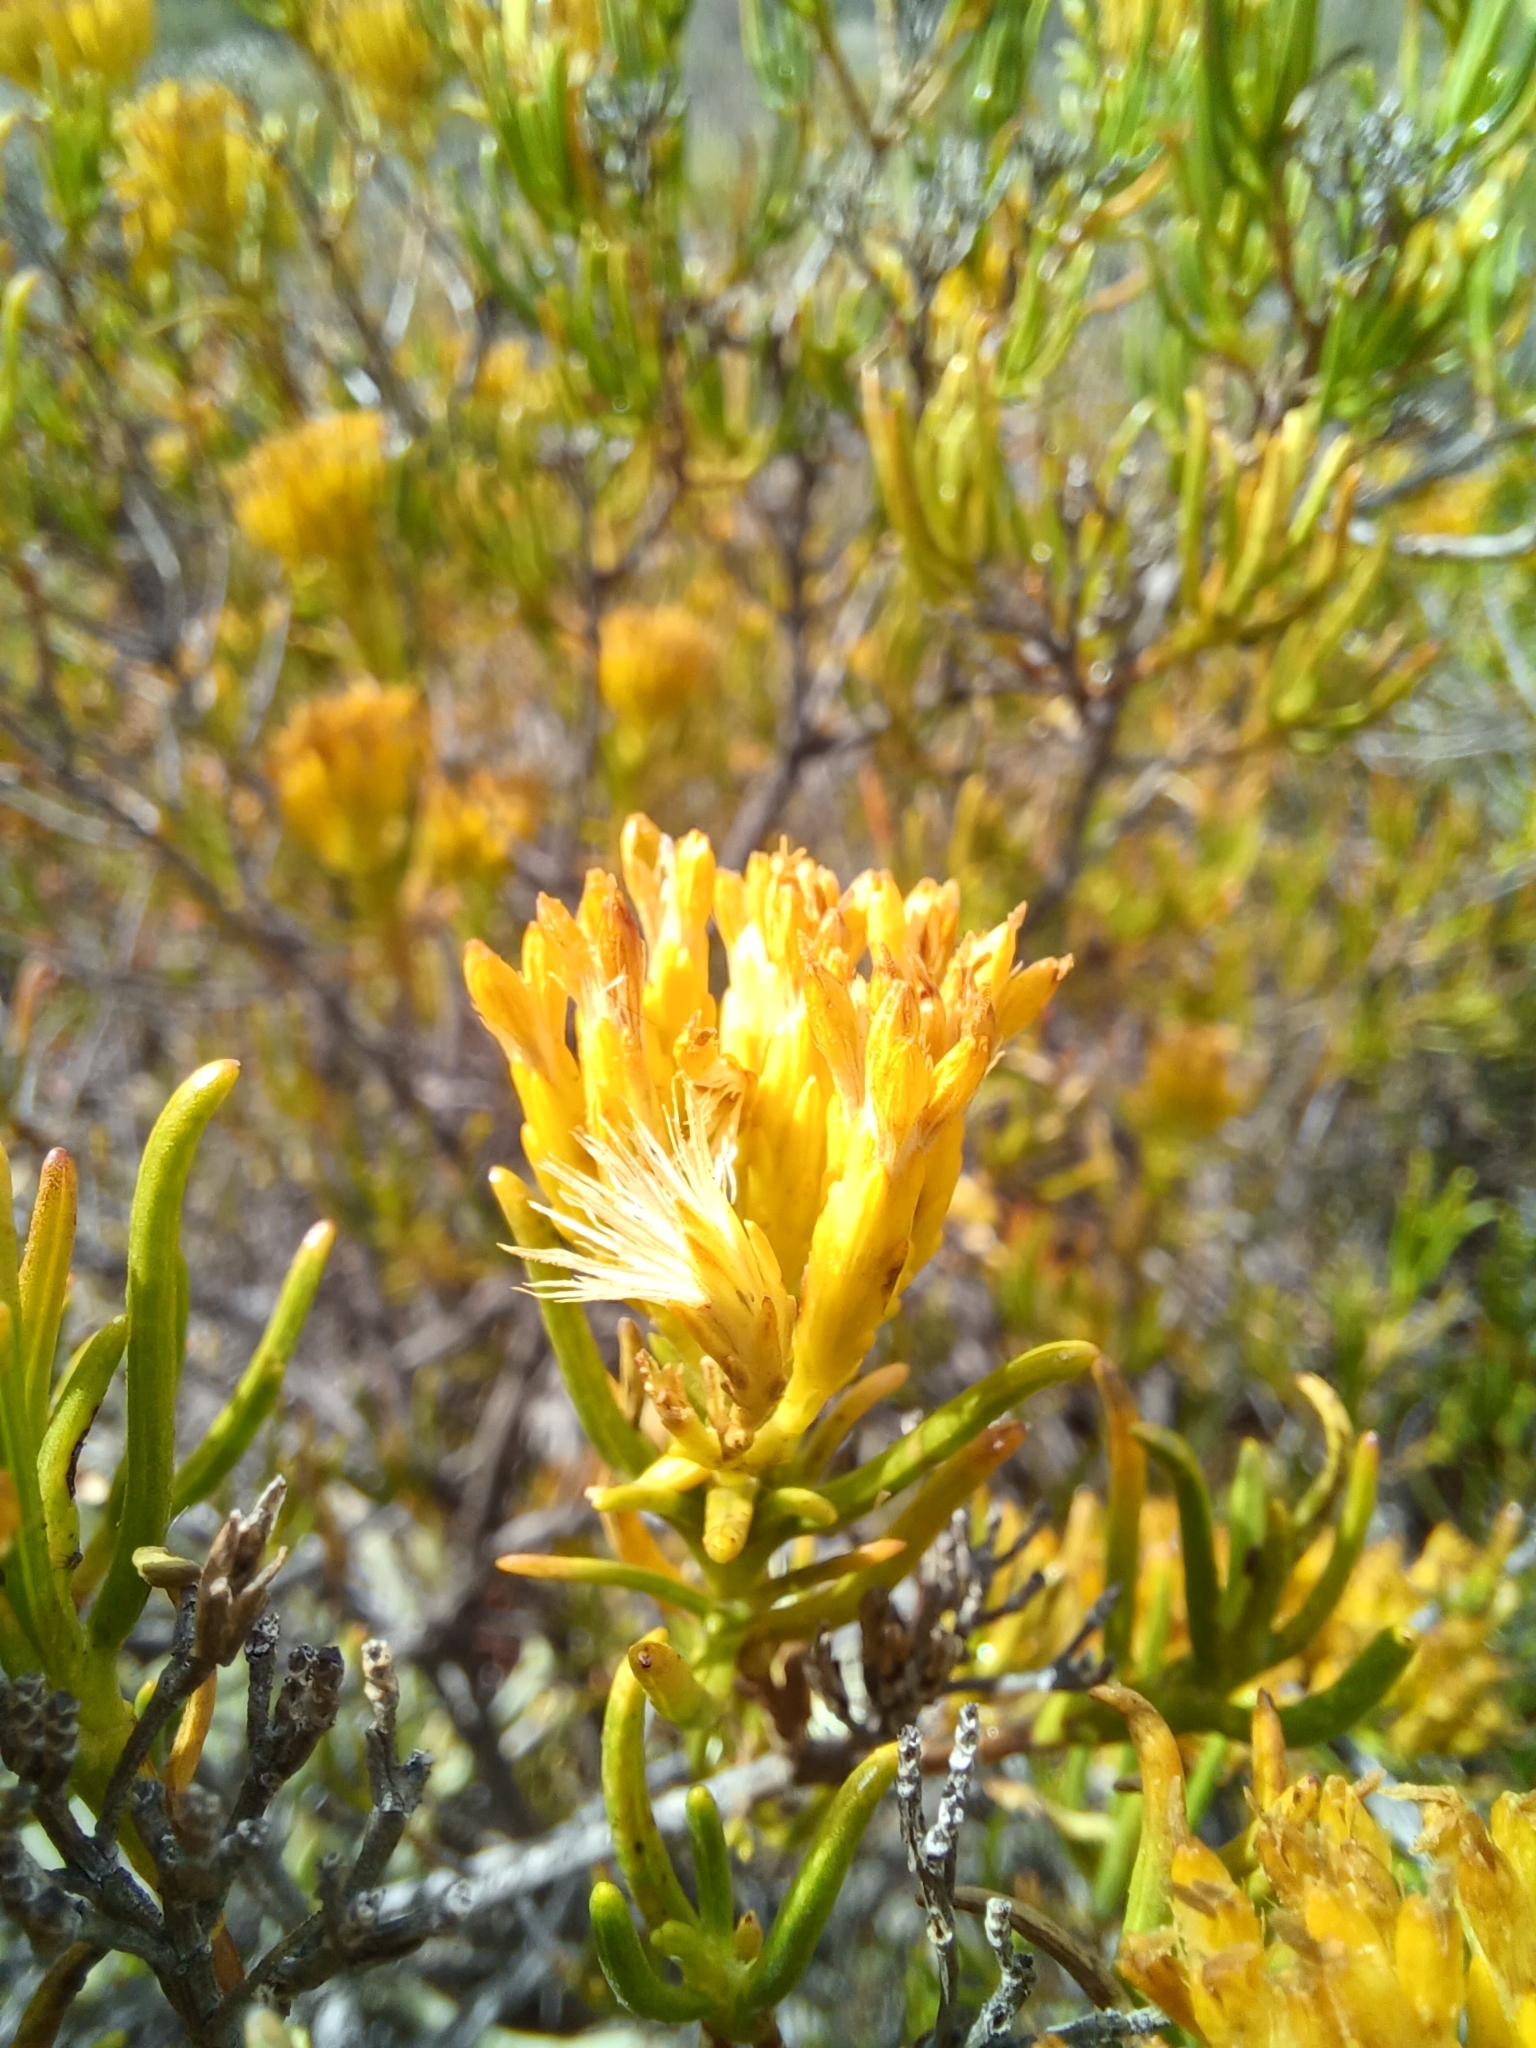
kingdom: Plantae
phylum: Tracheophyta
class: Magnoliopsida
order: Asterales
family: Asteraceae
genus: Pteronia
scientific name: Pteronia paniculata
